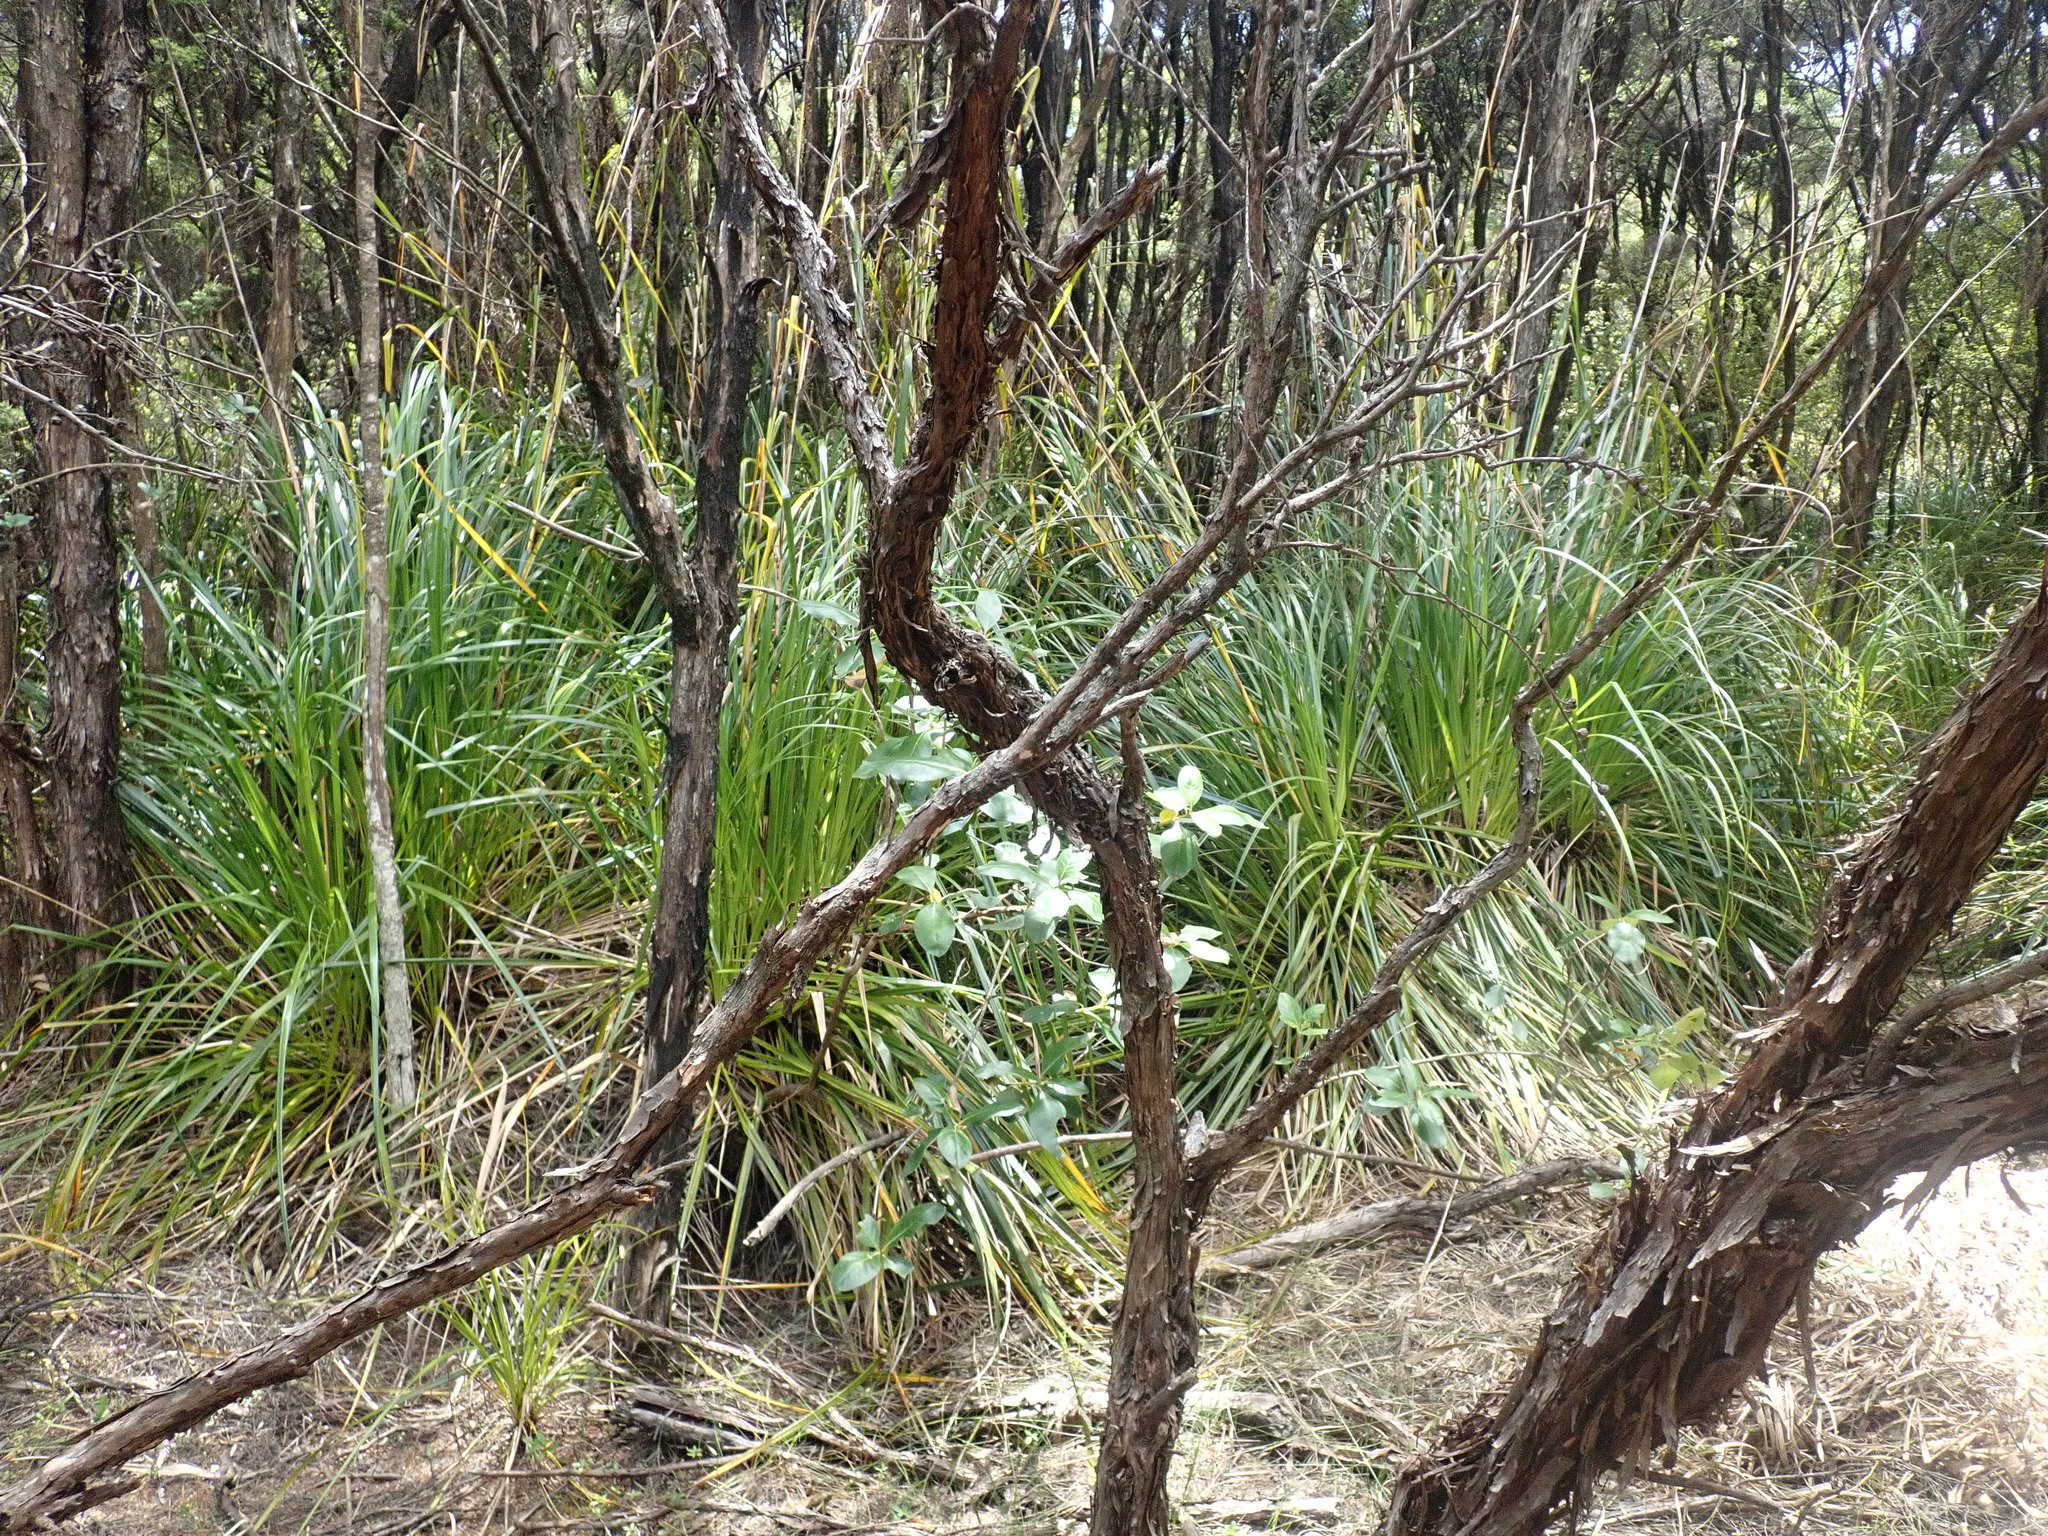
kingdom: Plantae
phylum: Tracheophyta
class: Magnoliopsida
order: Myrtales
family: Myrtaceae
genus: Leptospermum
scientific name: Leptospermum scoparium
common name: Broom tea-tree
